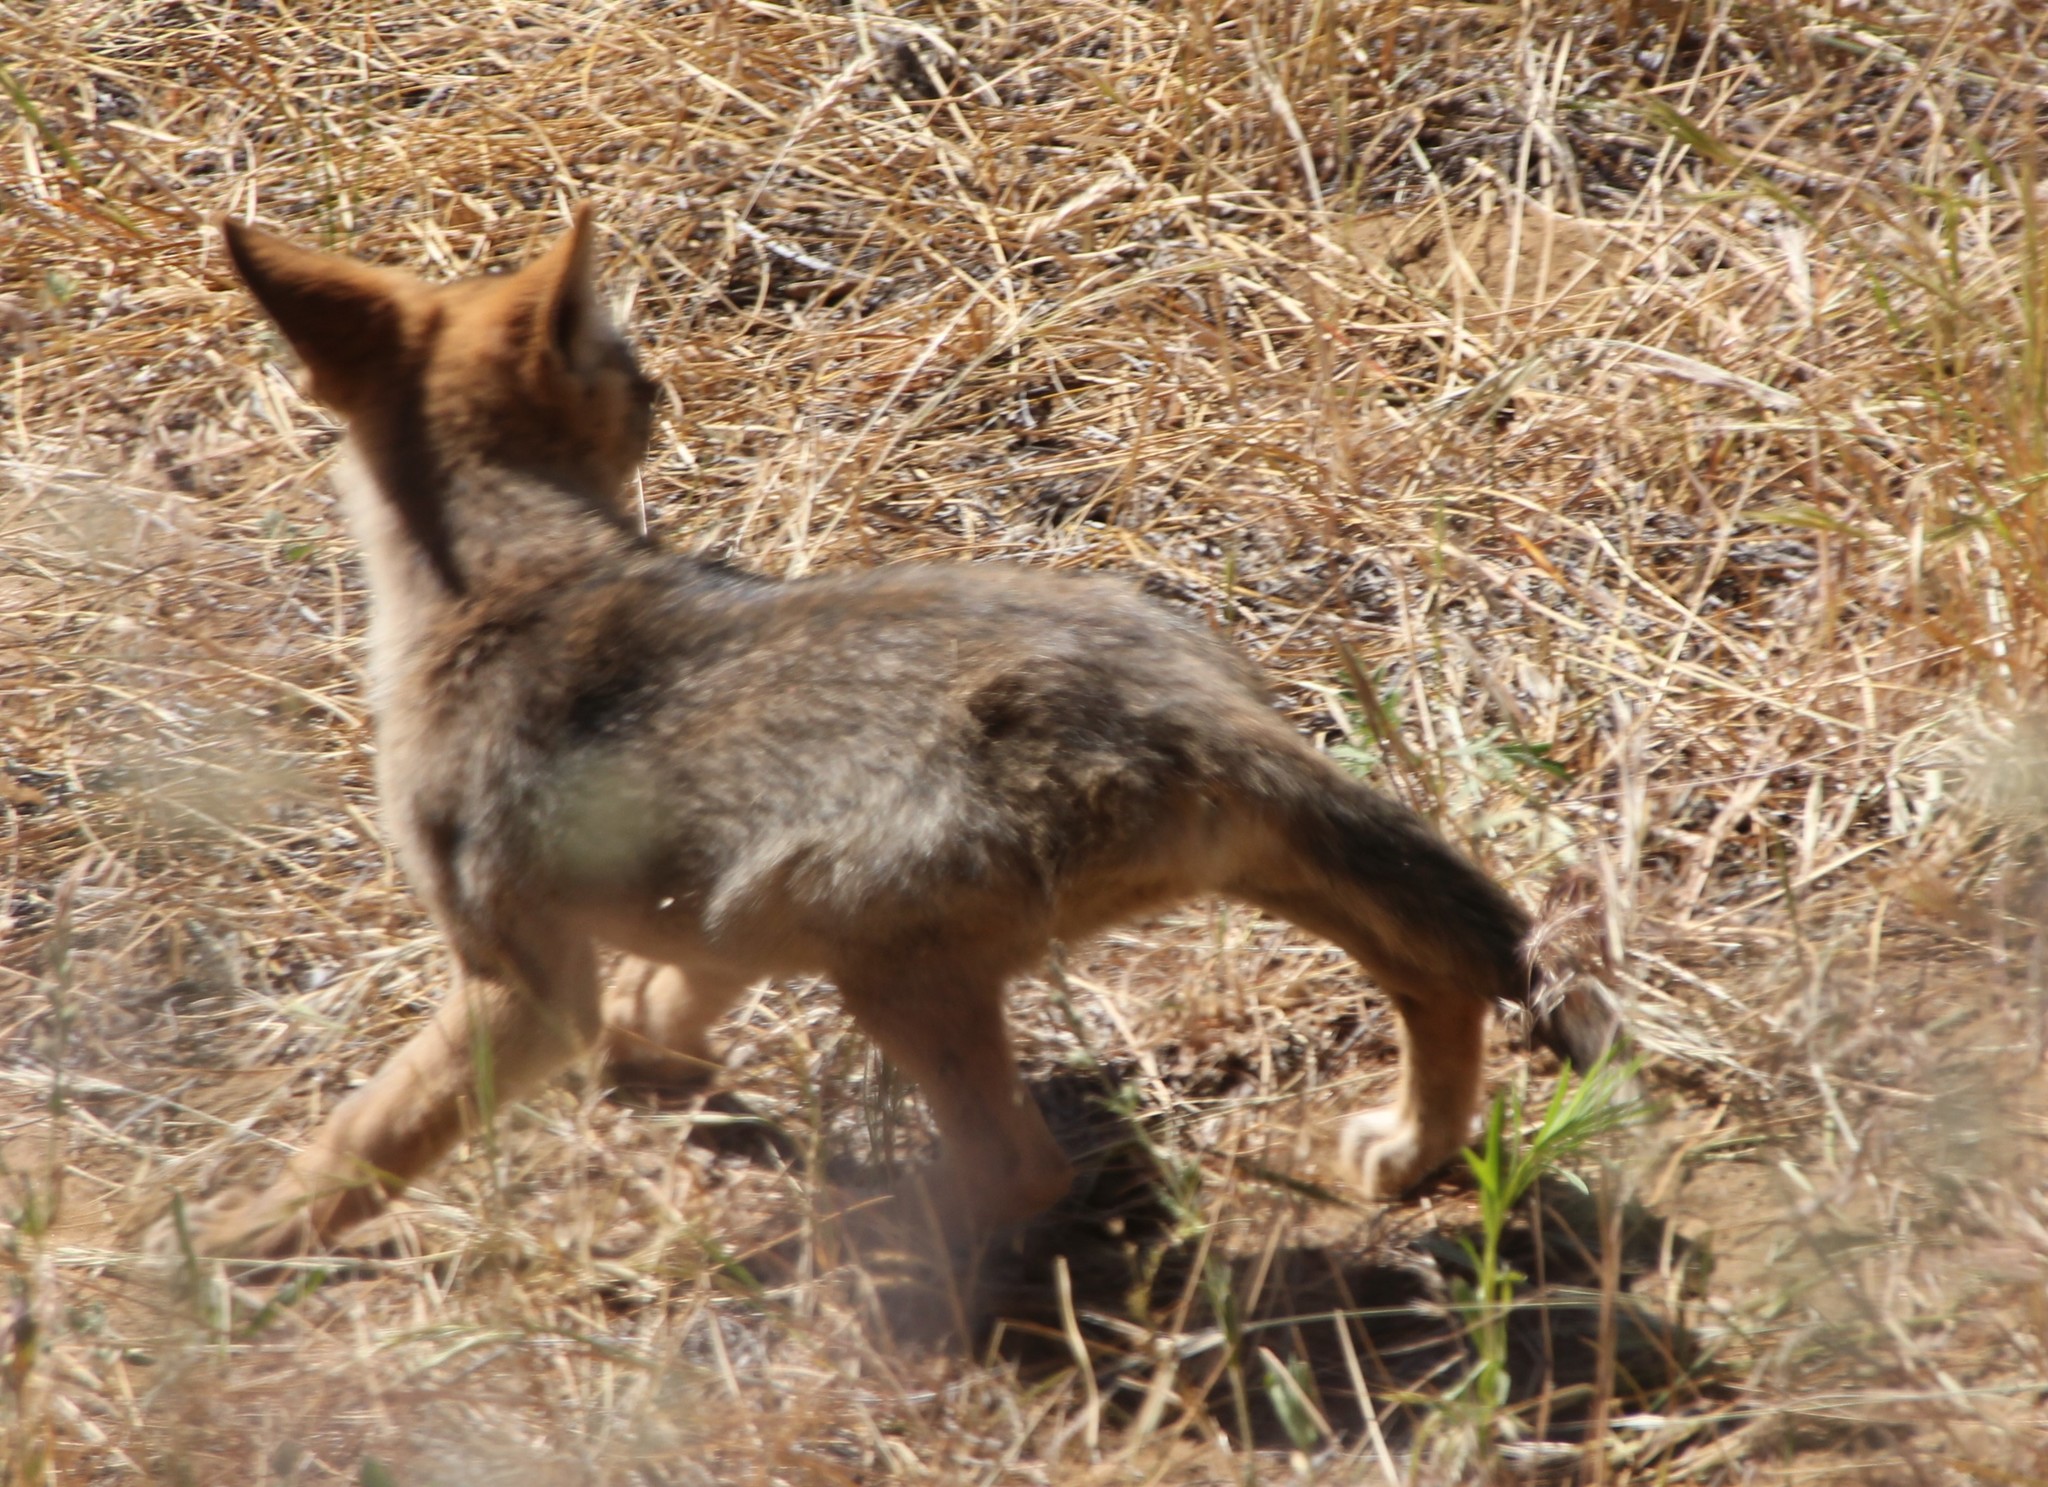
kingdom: Animalia
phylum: Chordata
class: Mammalia
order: Carnivora
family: Canidae
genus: Canis
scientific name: Canis latrans
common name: Coyote
